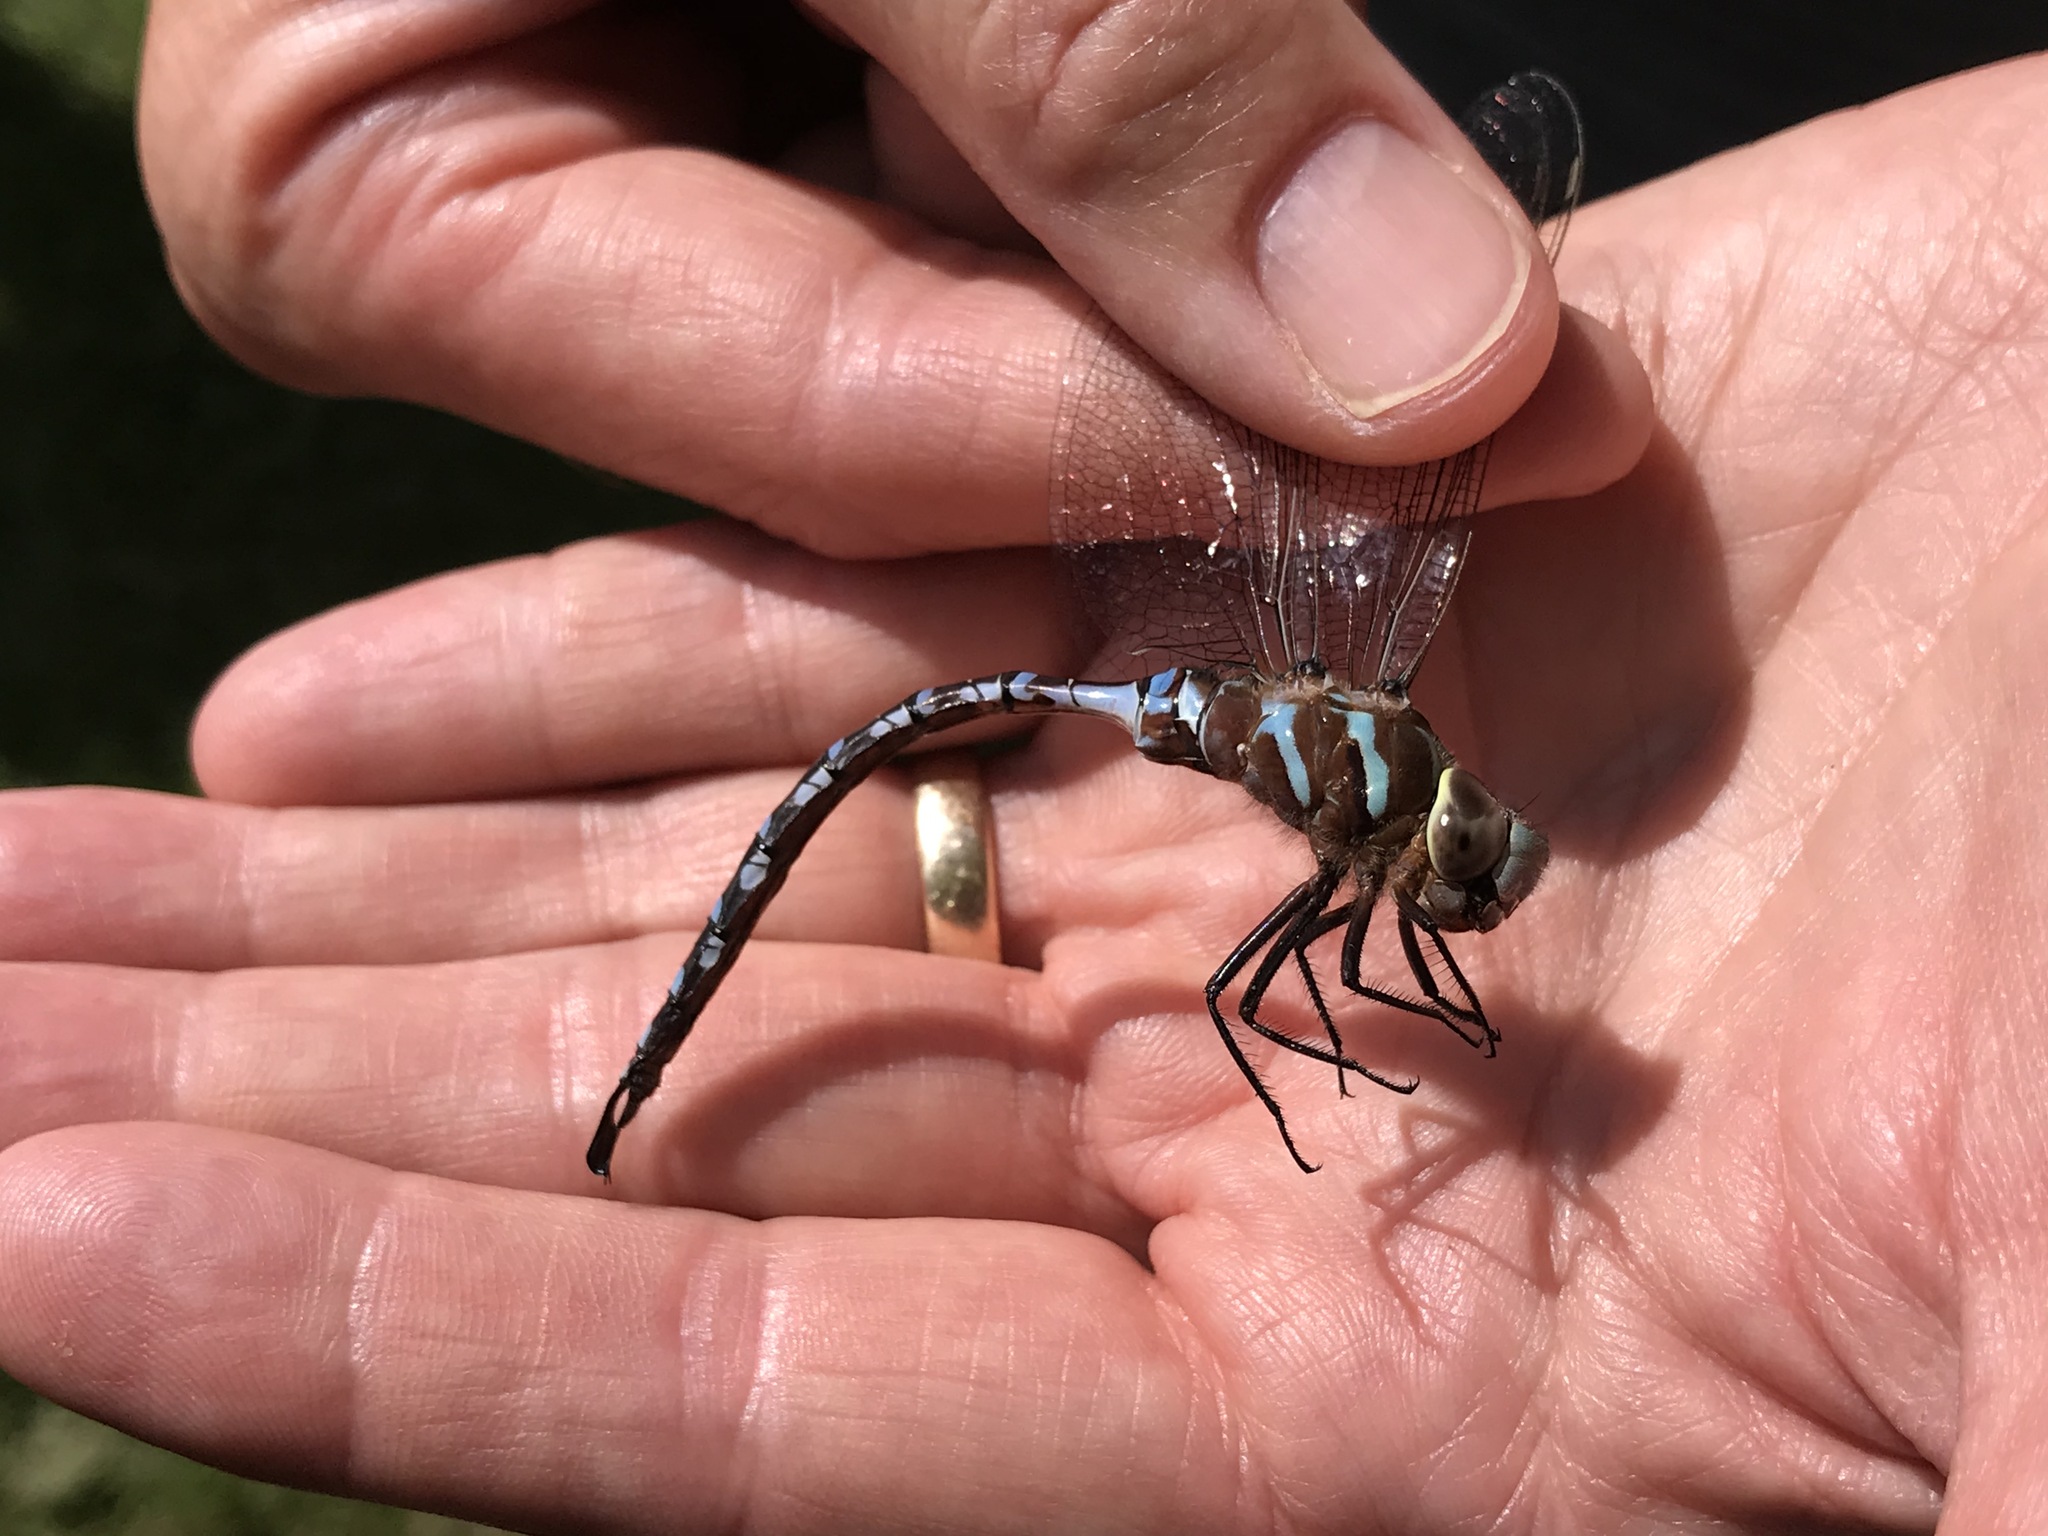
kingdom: Animalia
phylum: Arthropoda
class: Insecta
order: Odonata
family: Aeshnidae
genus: Aeshna
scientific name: Aeshna constricta
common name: Lance-tipped darner
